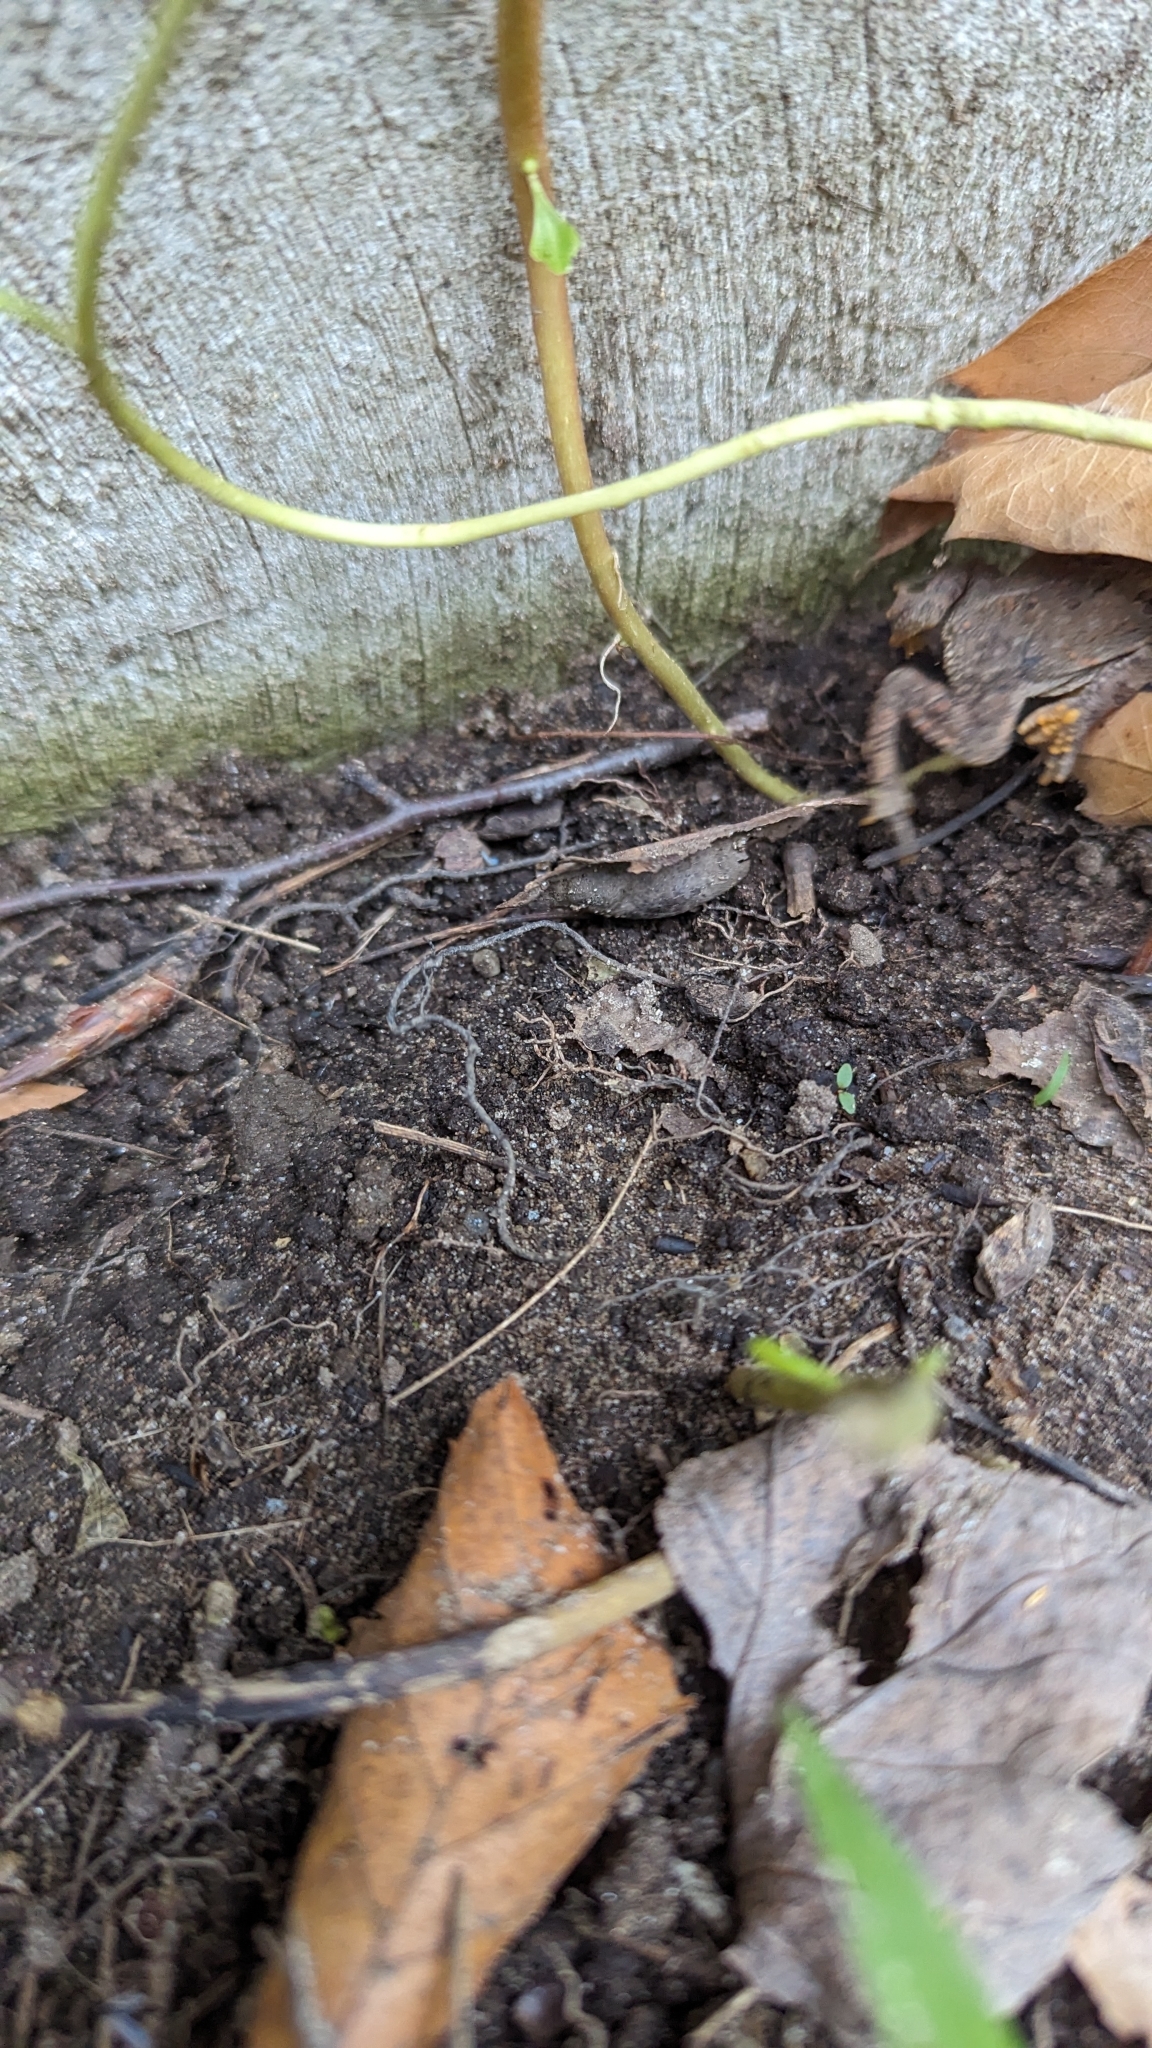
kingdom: Animalia
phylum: Chordata
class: Amphibia
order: Anura
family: Bufonidae
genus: Anaxyrus
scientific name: Anaxyrus americanus
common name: American toad
